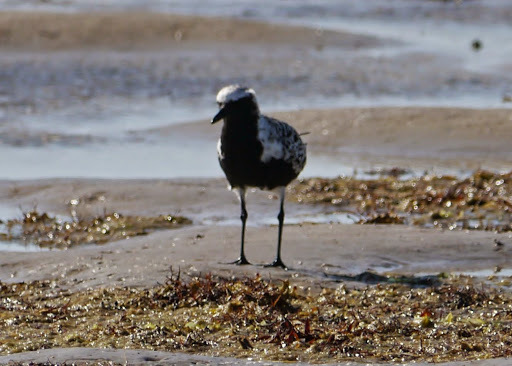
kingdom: Animalia
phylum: Chordata
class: Aves
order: Charadriiformes
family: Charadriidae
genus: Pluvialis
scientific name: Pluvialis squatarola
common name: Grey plover
